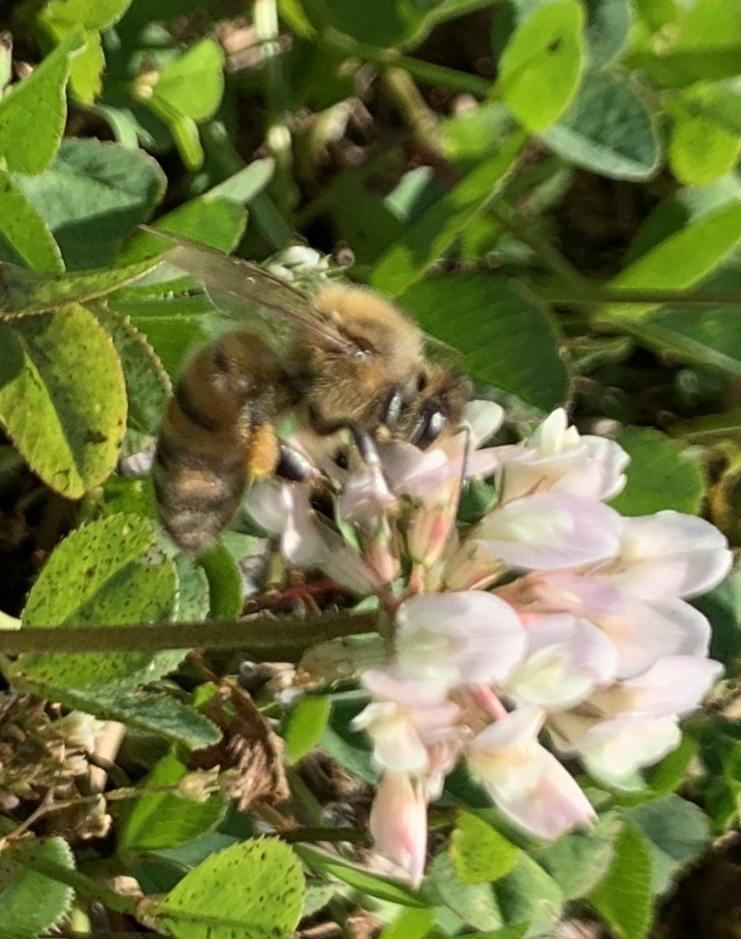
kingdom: Animalia
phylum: Arthropoda
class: Insecta
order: Hymenoptera
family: Apidae
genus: Apis
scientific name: Apis mellifera
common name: Honey bee
